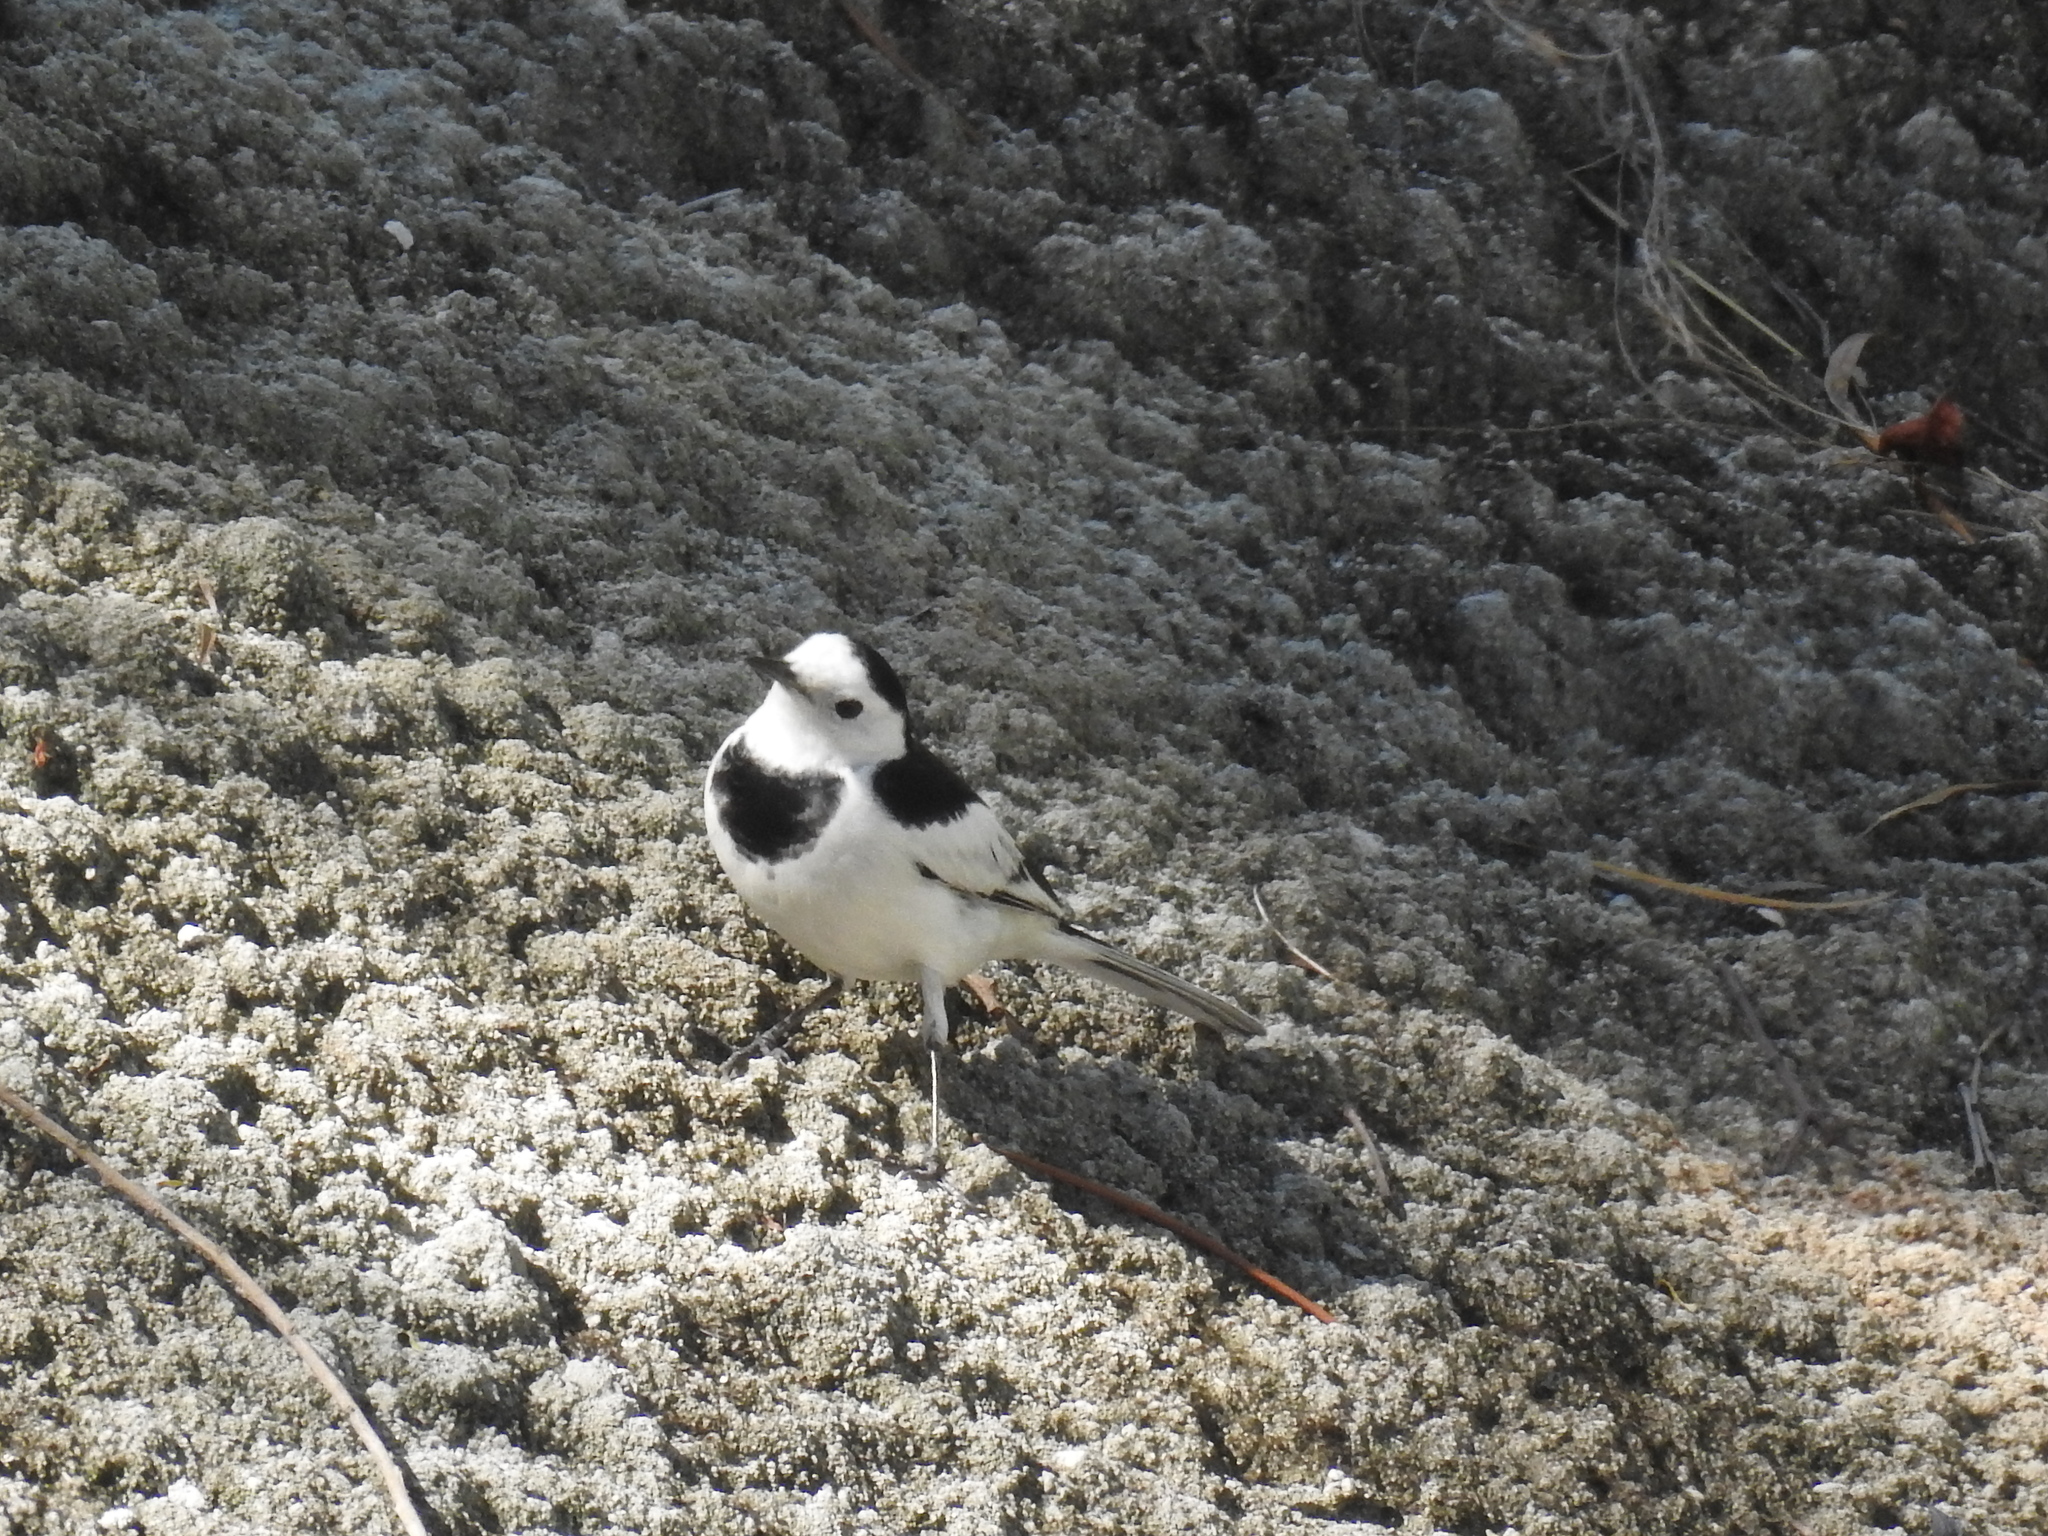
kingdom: Animalia
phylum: Chordata
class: Aves
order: Passeriformes
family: Motacillidae
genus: Motacilla
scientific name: Motacilla alba
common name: White wagtail
